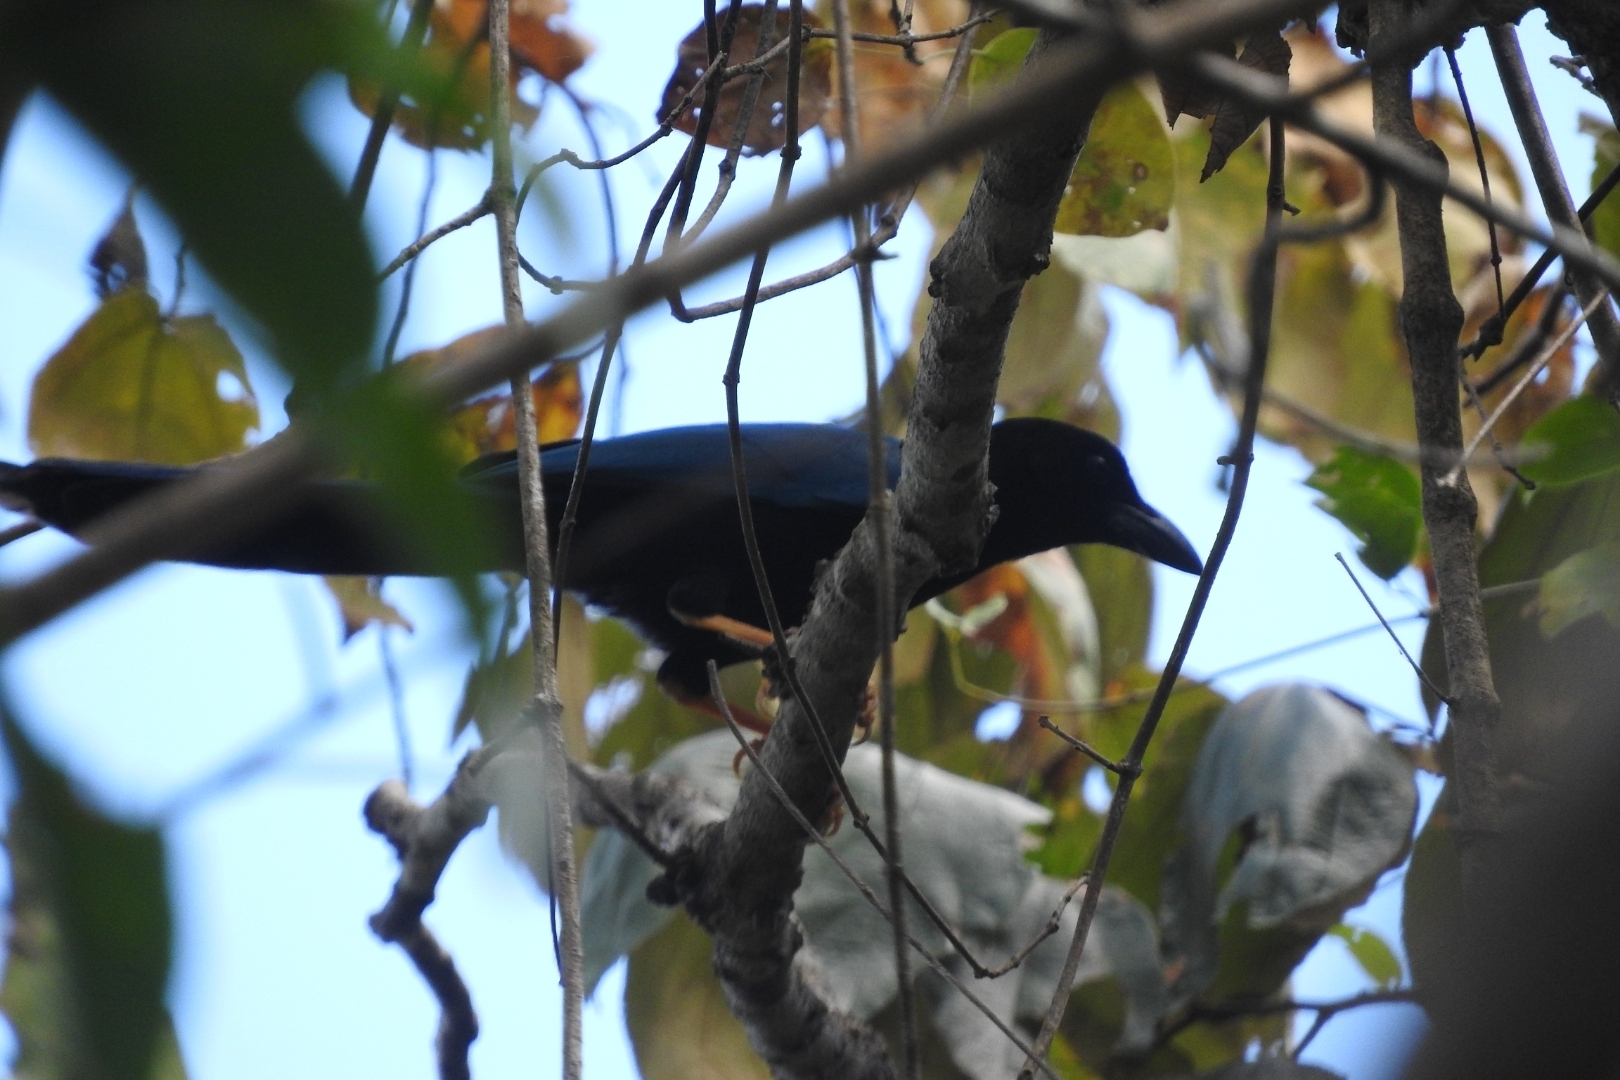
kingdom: Animalia
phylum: Chordata
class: Aves
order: Passeriformes
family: Corvidae
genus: Cyanocorax
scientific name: Cyanocorax yucatanicus
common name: Yucatan jay
